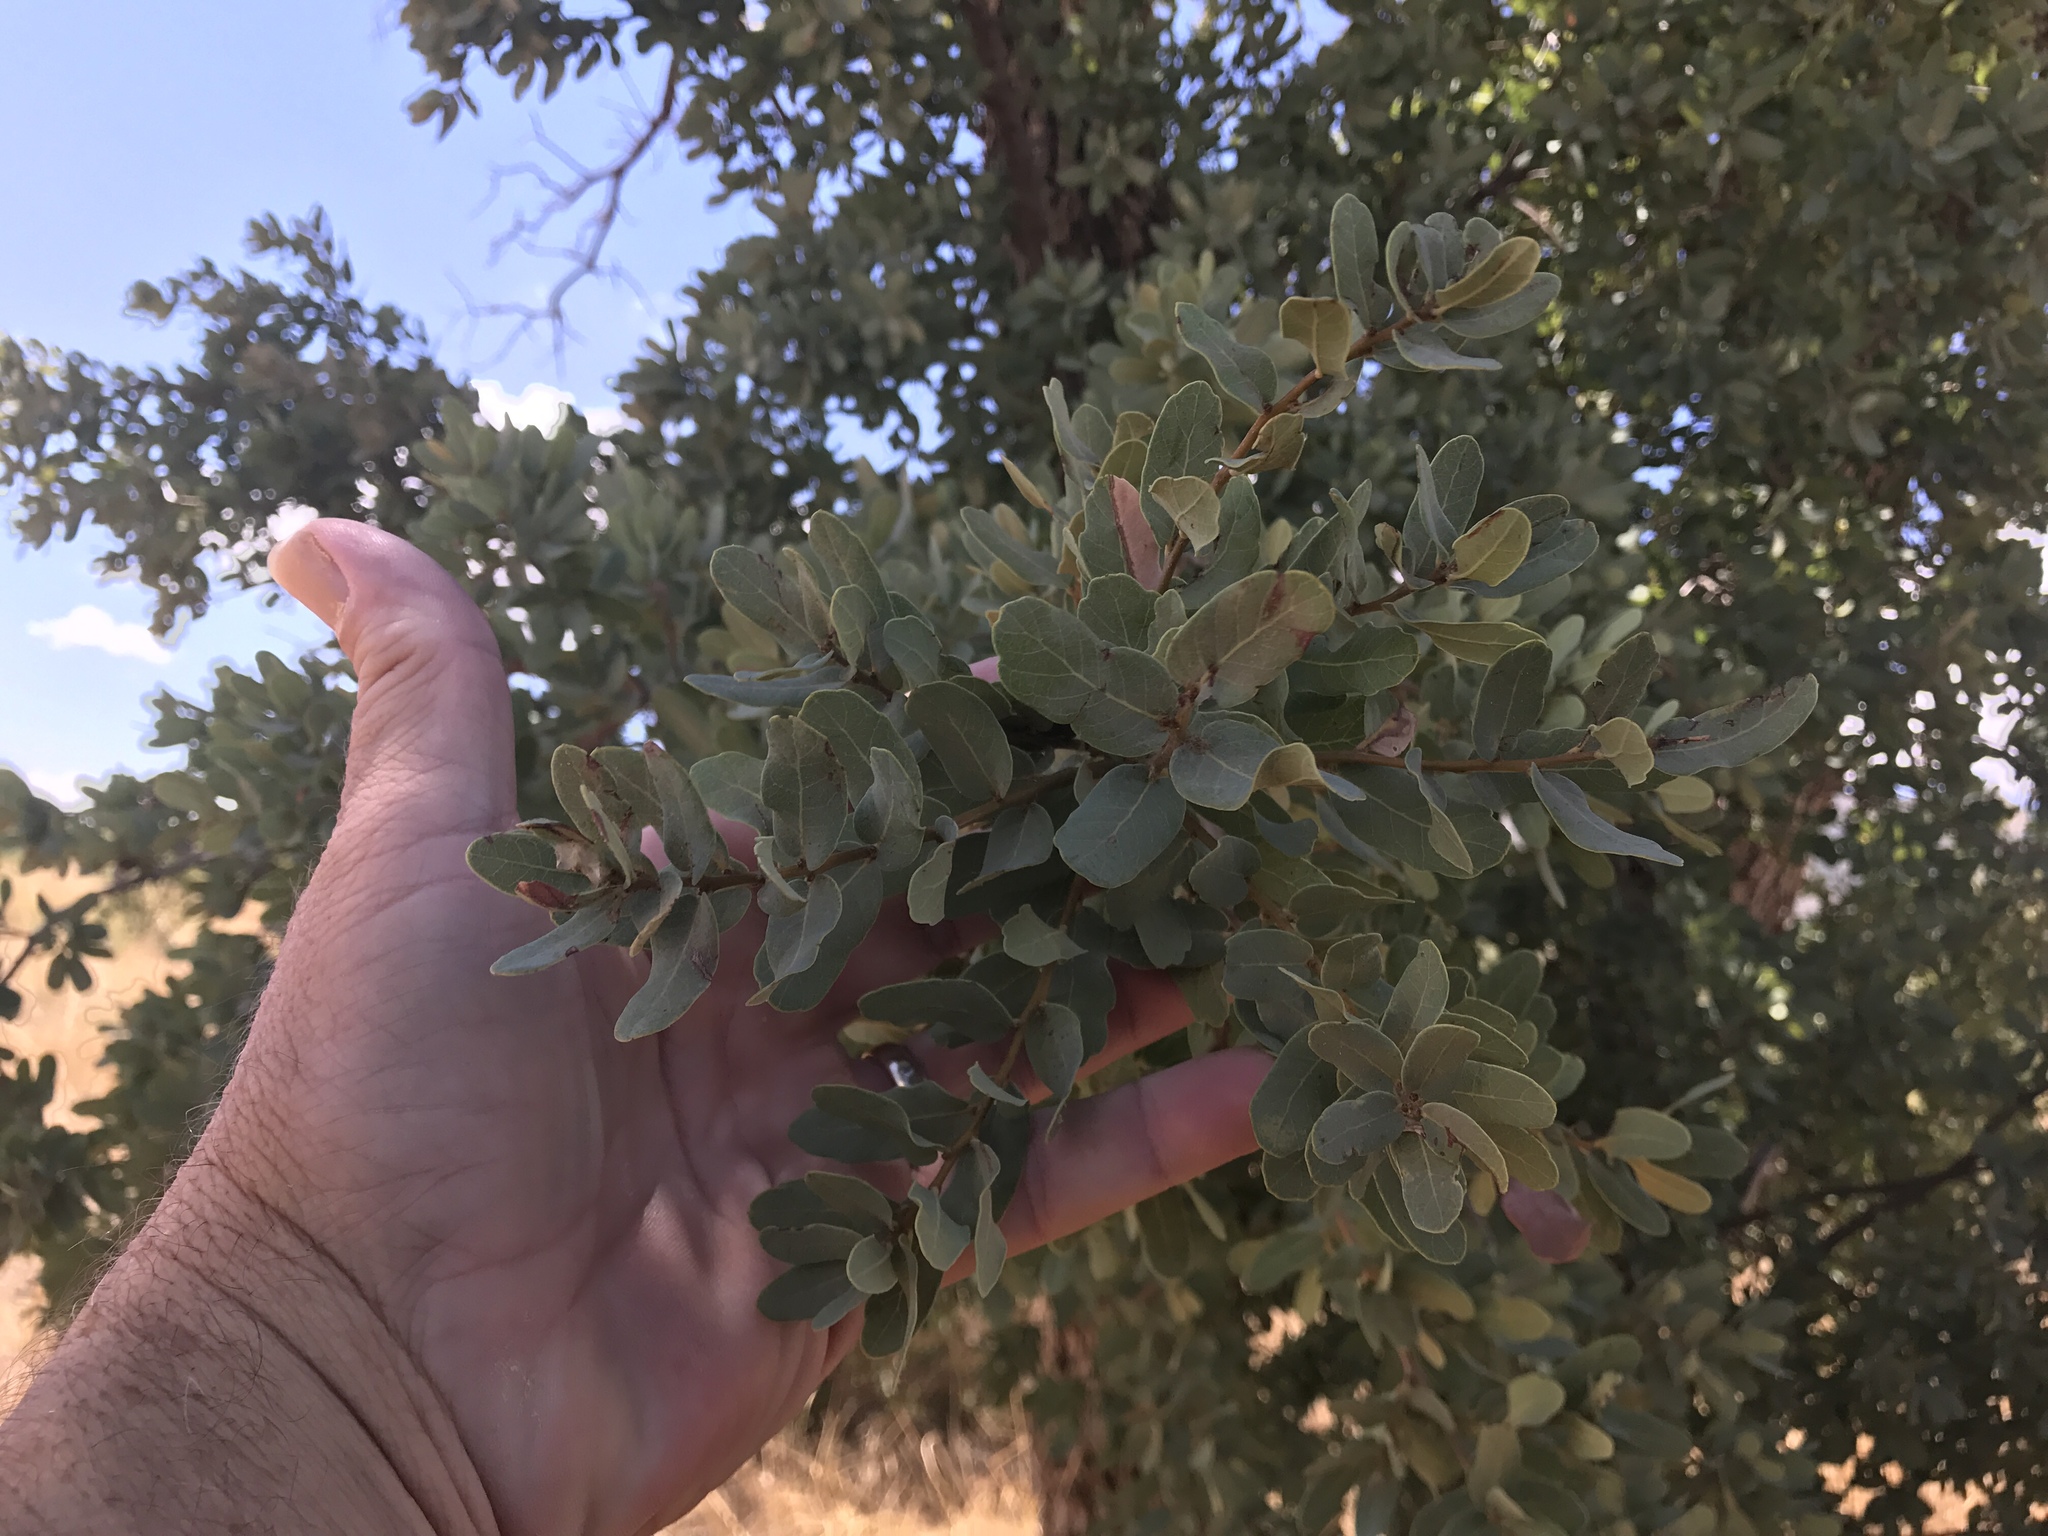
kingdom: Plantae
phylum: Tracheophyta
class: Magnoliopsida
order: Fagales
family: Fagaceae
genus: Quercus
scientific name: Quercus oblongifolia
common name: Mexican blue oak
